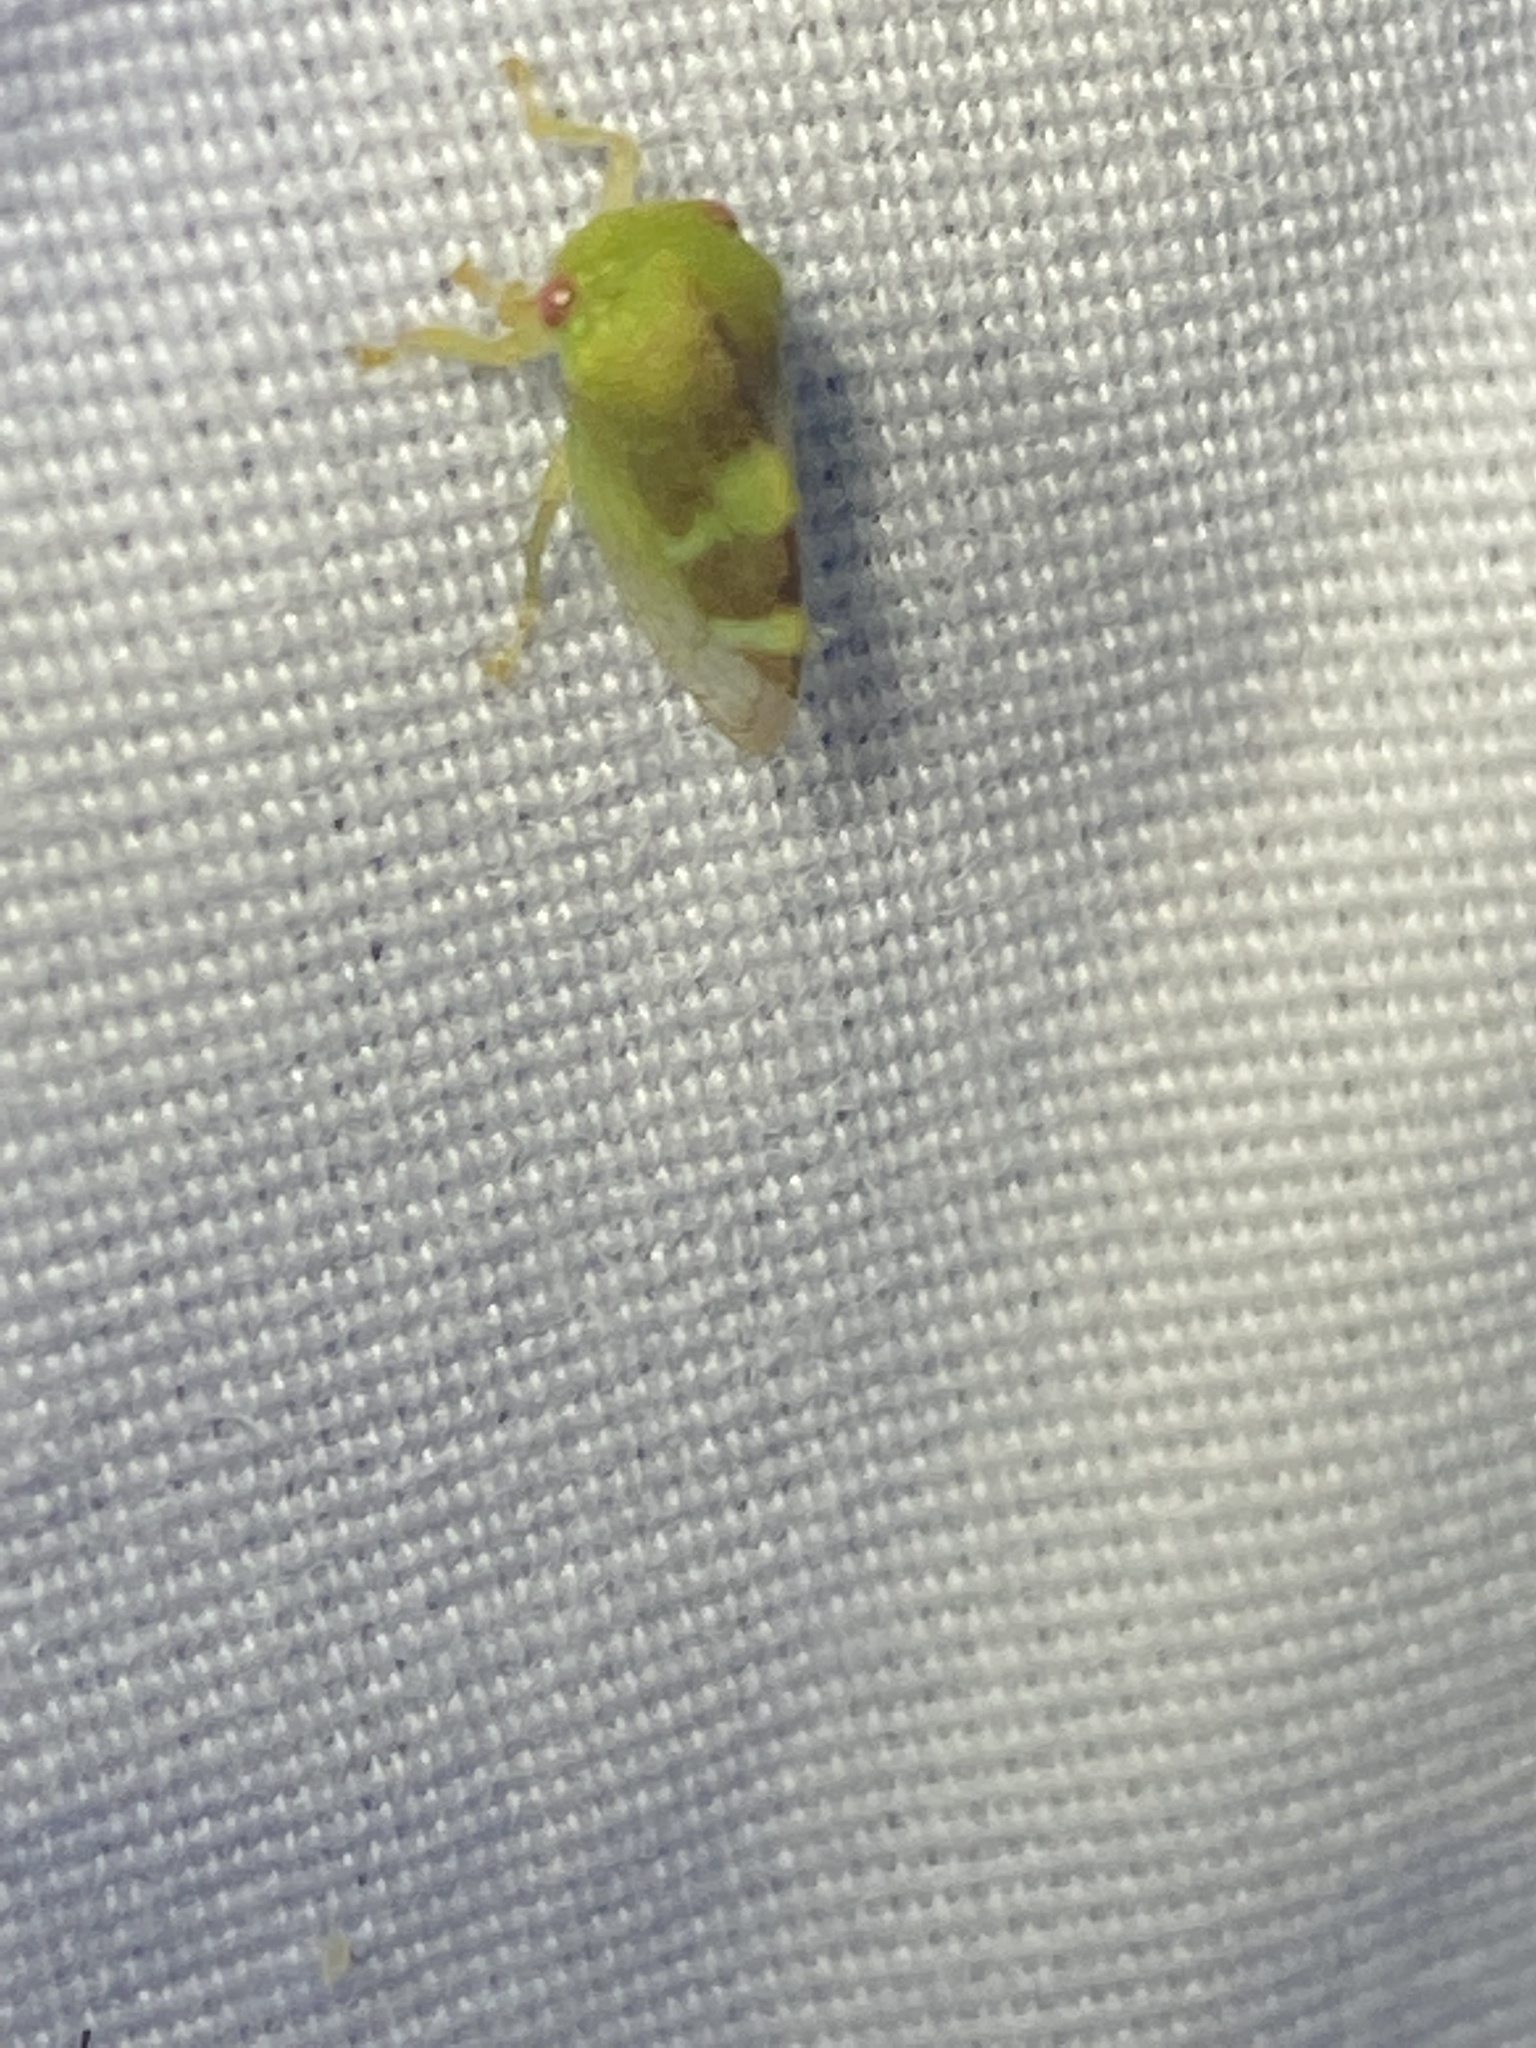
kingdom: Animalia
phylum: Arthropoda
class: Insecta
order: Hemiptera
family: Membracidae
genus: Cyrtolobus
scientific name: Cyrtolobus auroreus
